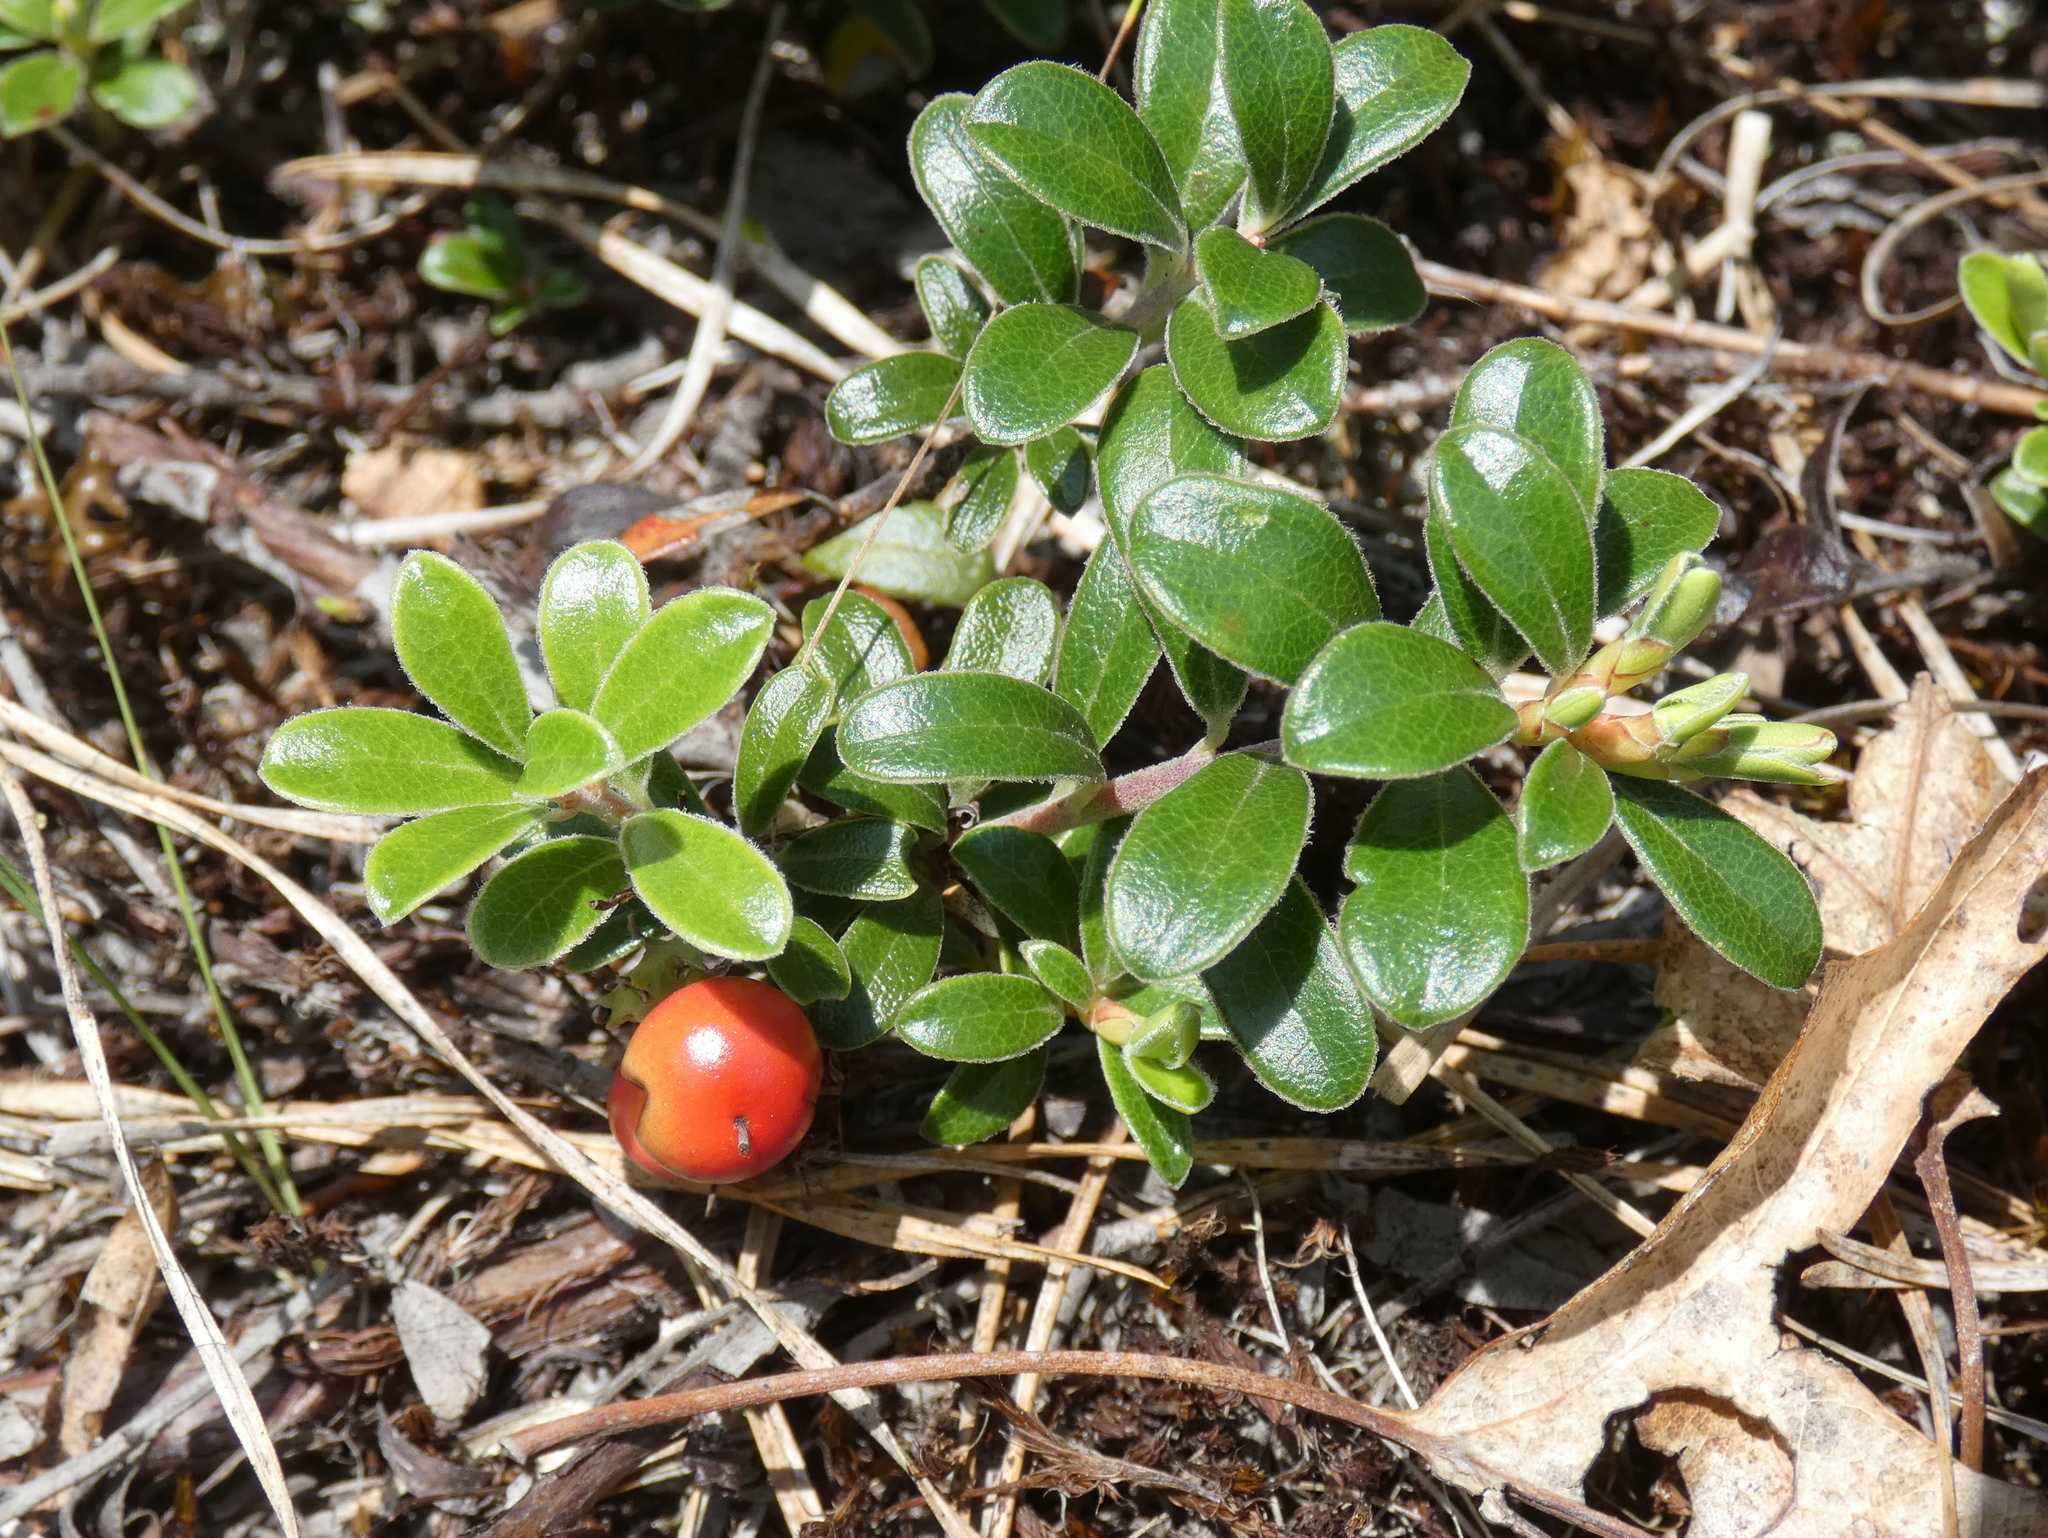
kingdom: Plantae
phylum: Tracheophyta
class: Magnoliopsida
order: Ericales
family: Ericaceae
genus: Arctostaphylos
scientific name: Arctostaphylos uva-ursi
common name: Bearberry
